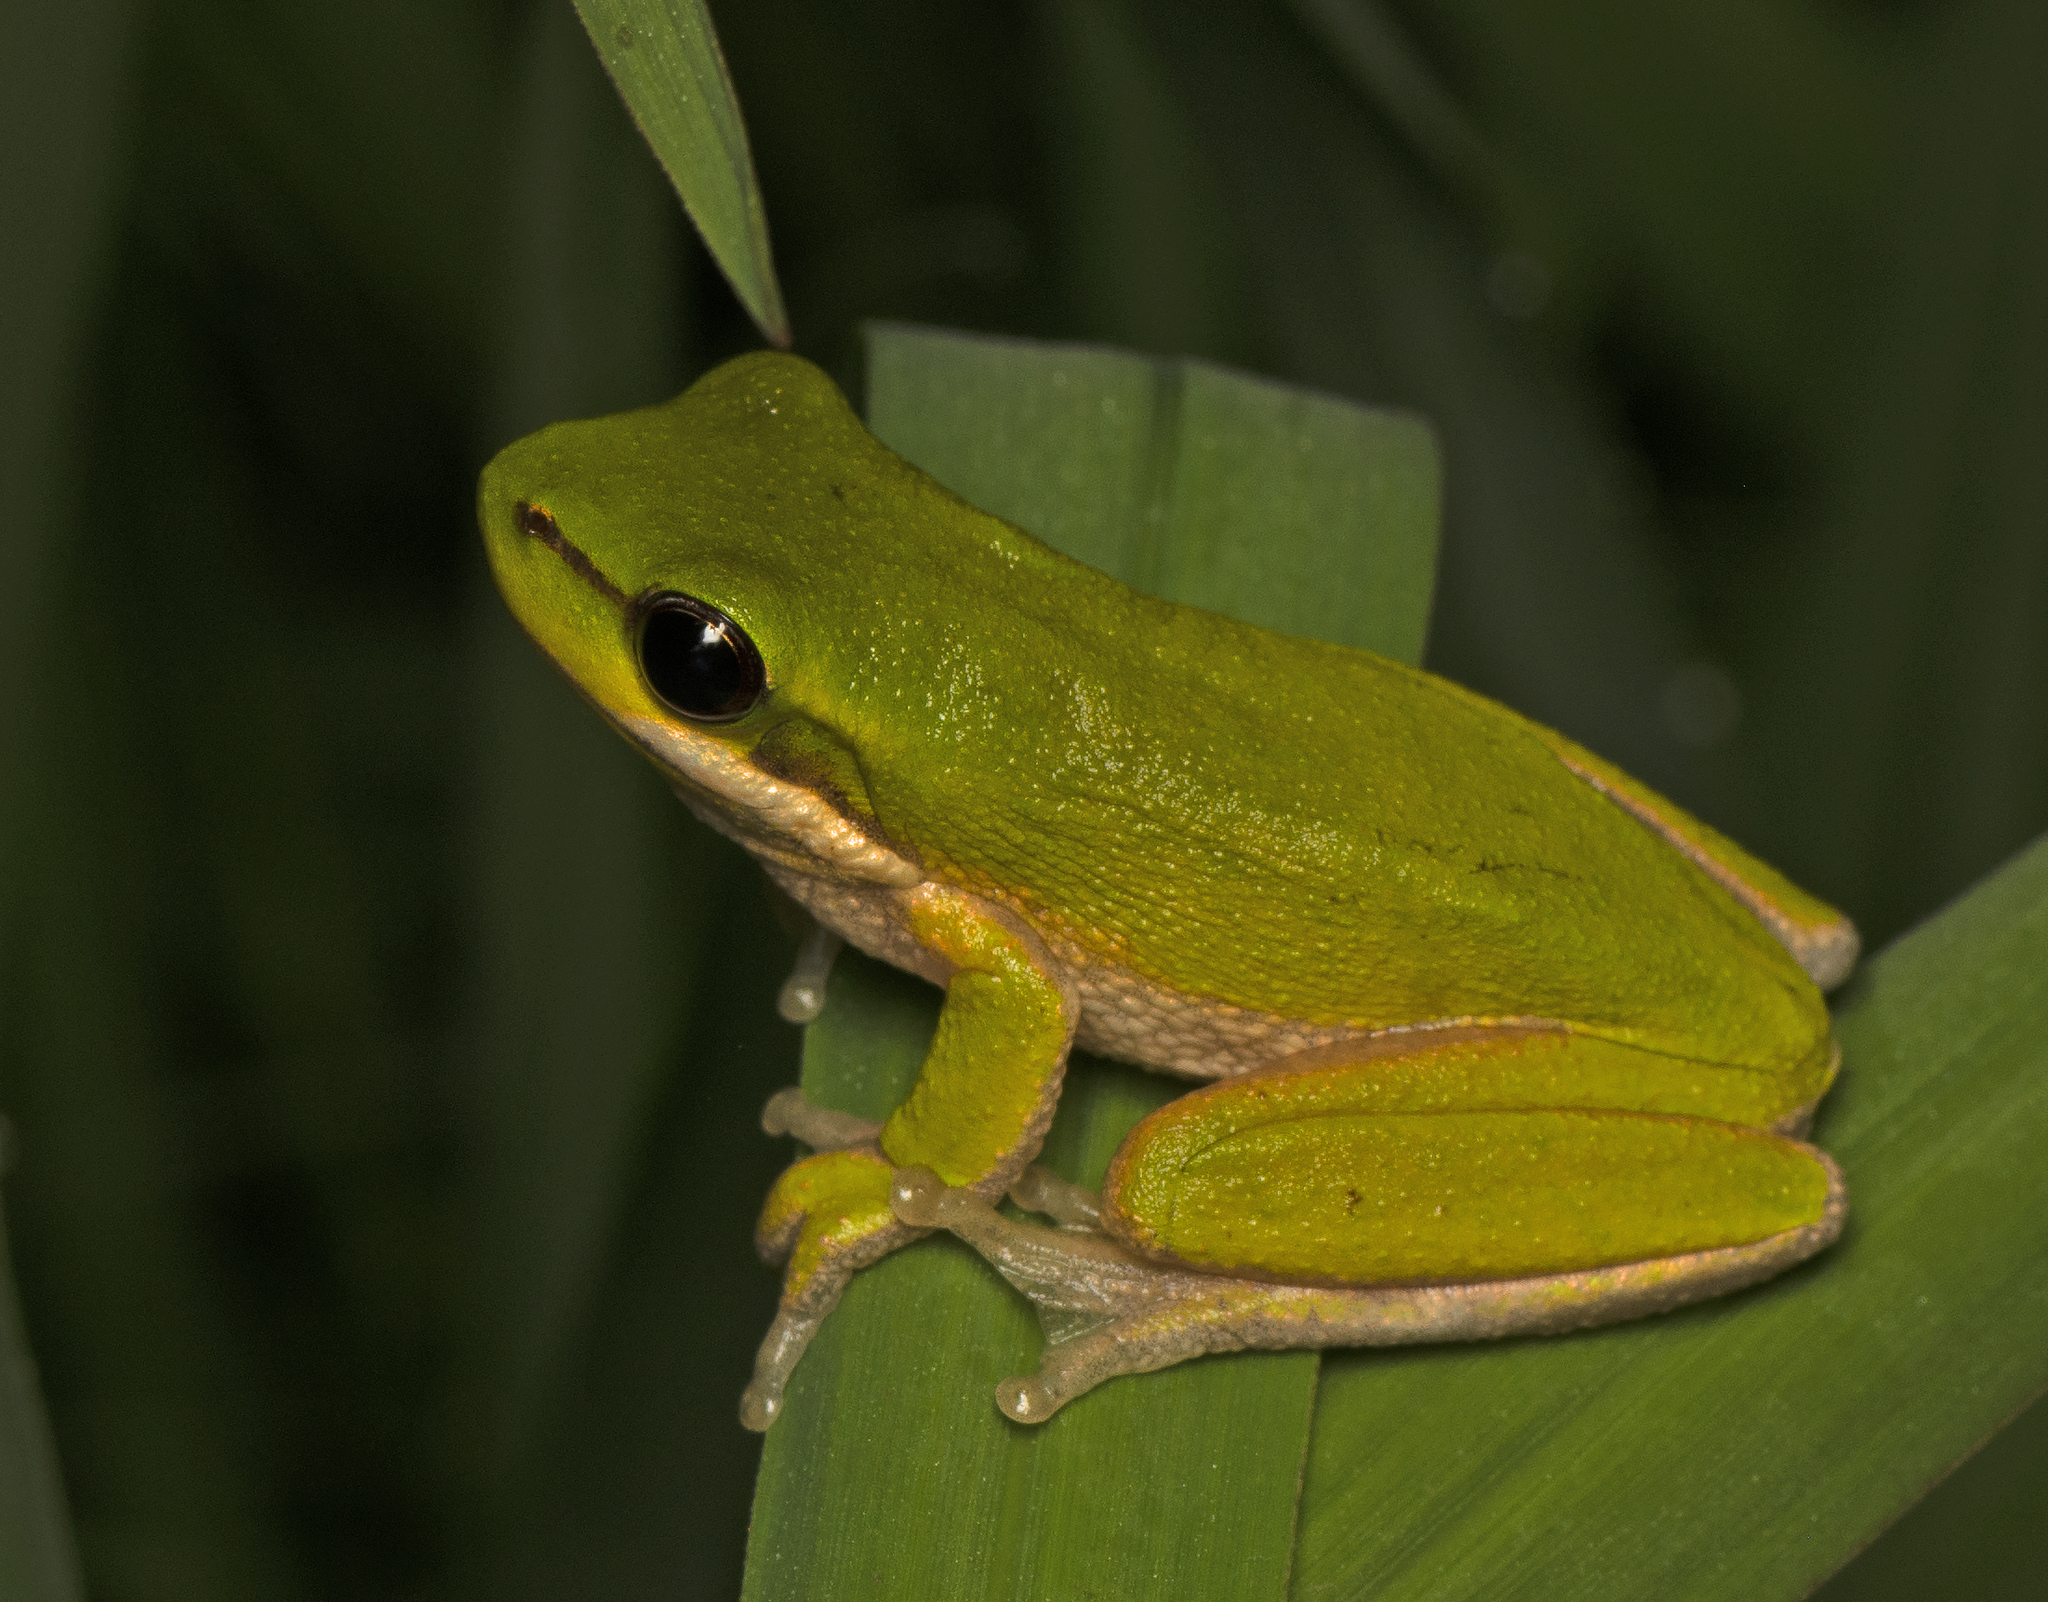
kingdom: Animalia
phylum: Chordata
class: Amphibia
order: Anura
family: Pelodryadidae
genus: Litoria
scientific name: Litoria fallax
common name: Eastern dwarf treefrog
